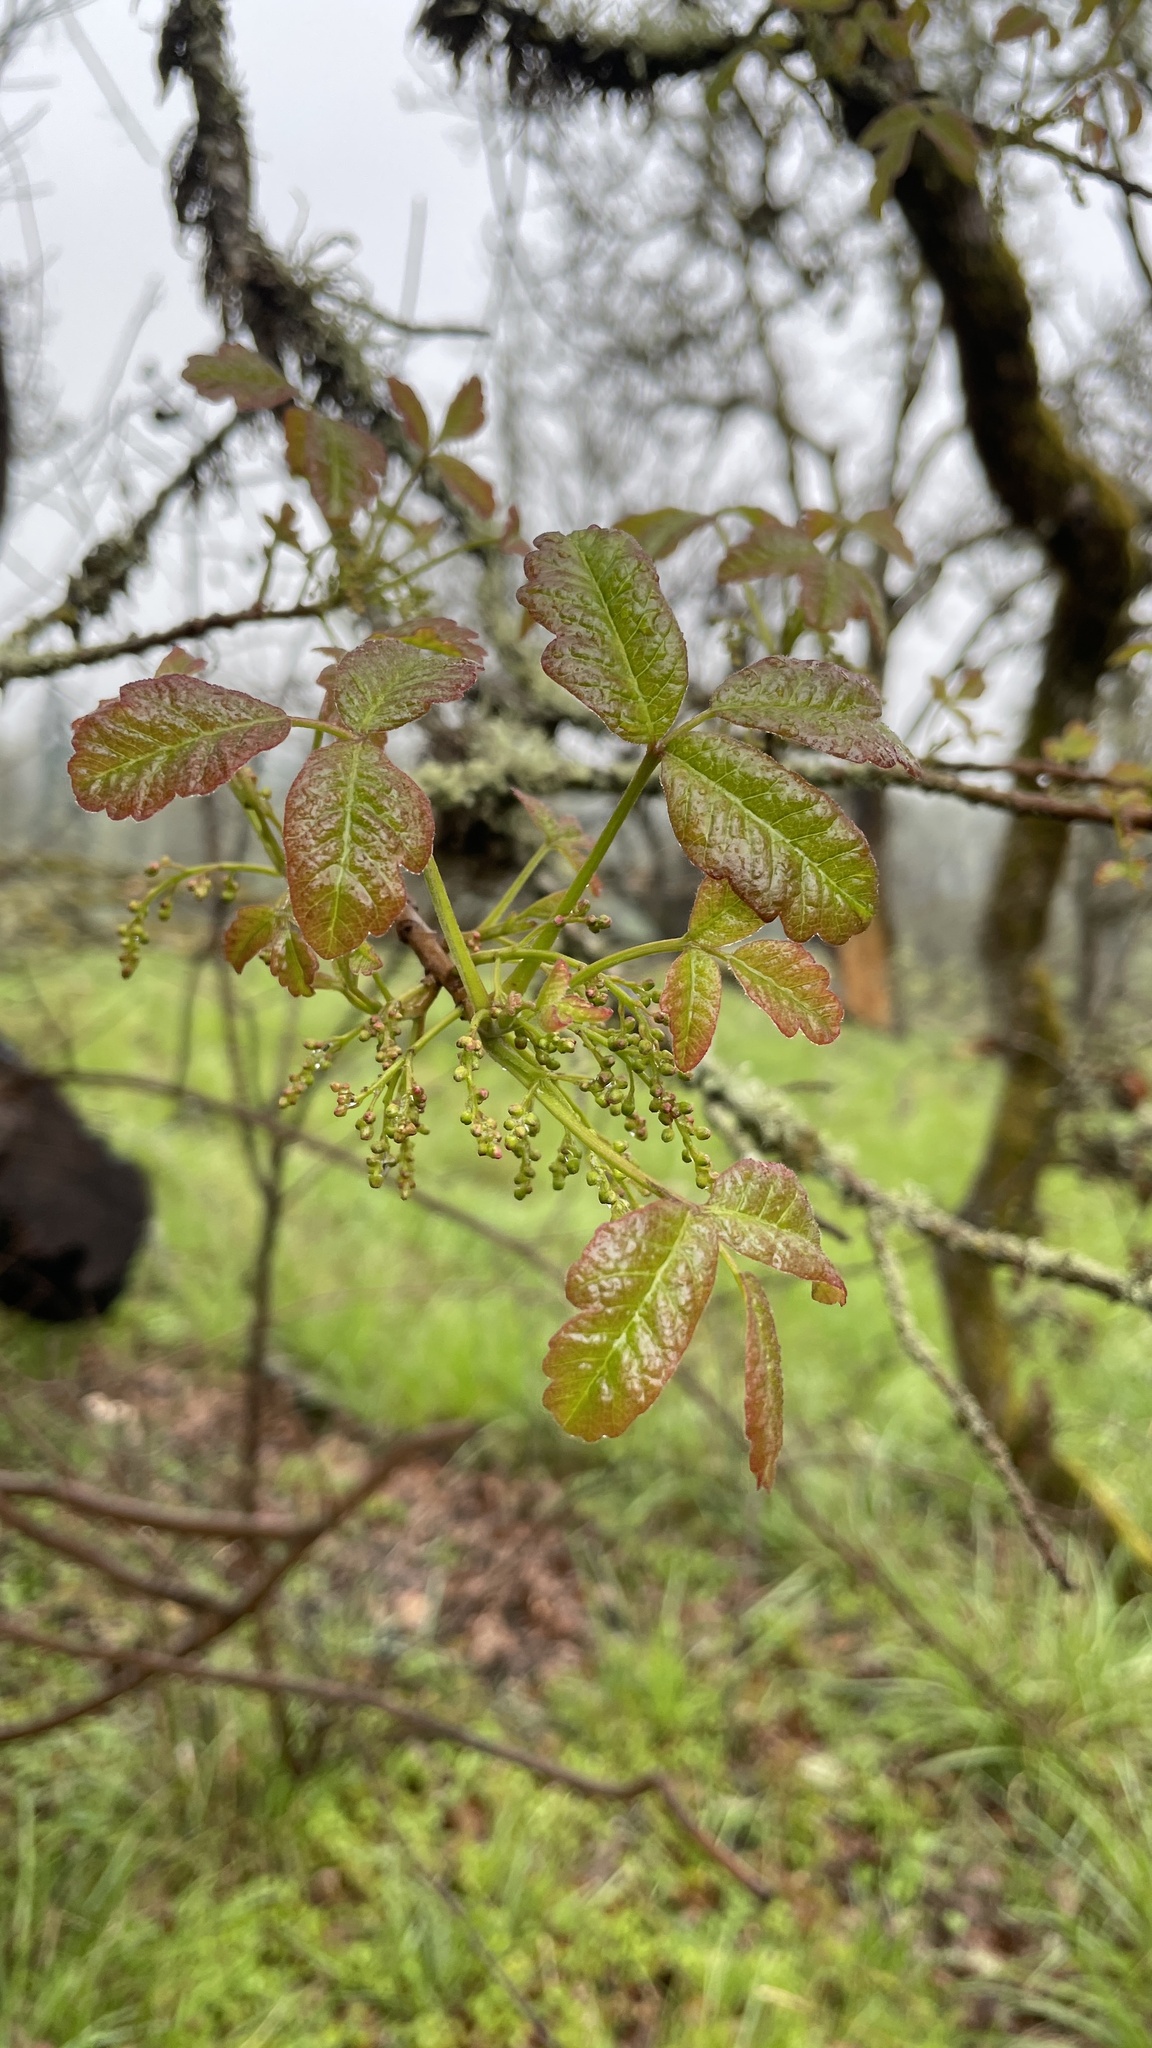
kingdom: Plantae
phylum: Tracheophyta
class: Magnoliopsida
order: Sapindales
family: Anacardiaceae
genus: Toxicodendron
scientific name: Toxicodendron diversilobum
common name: Pacific poison-oak
